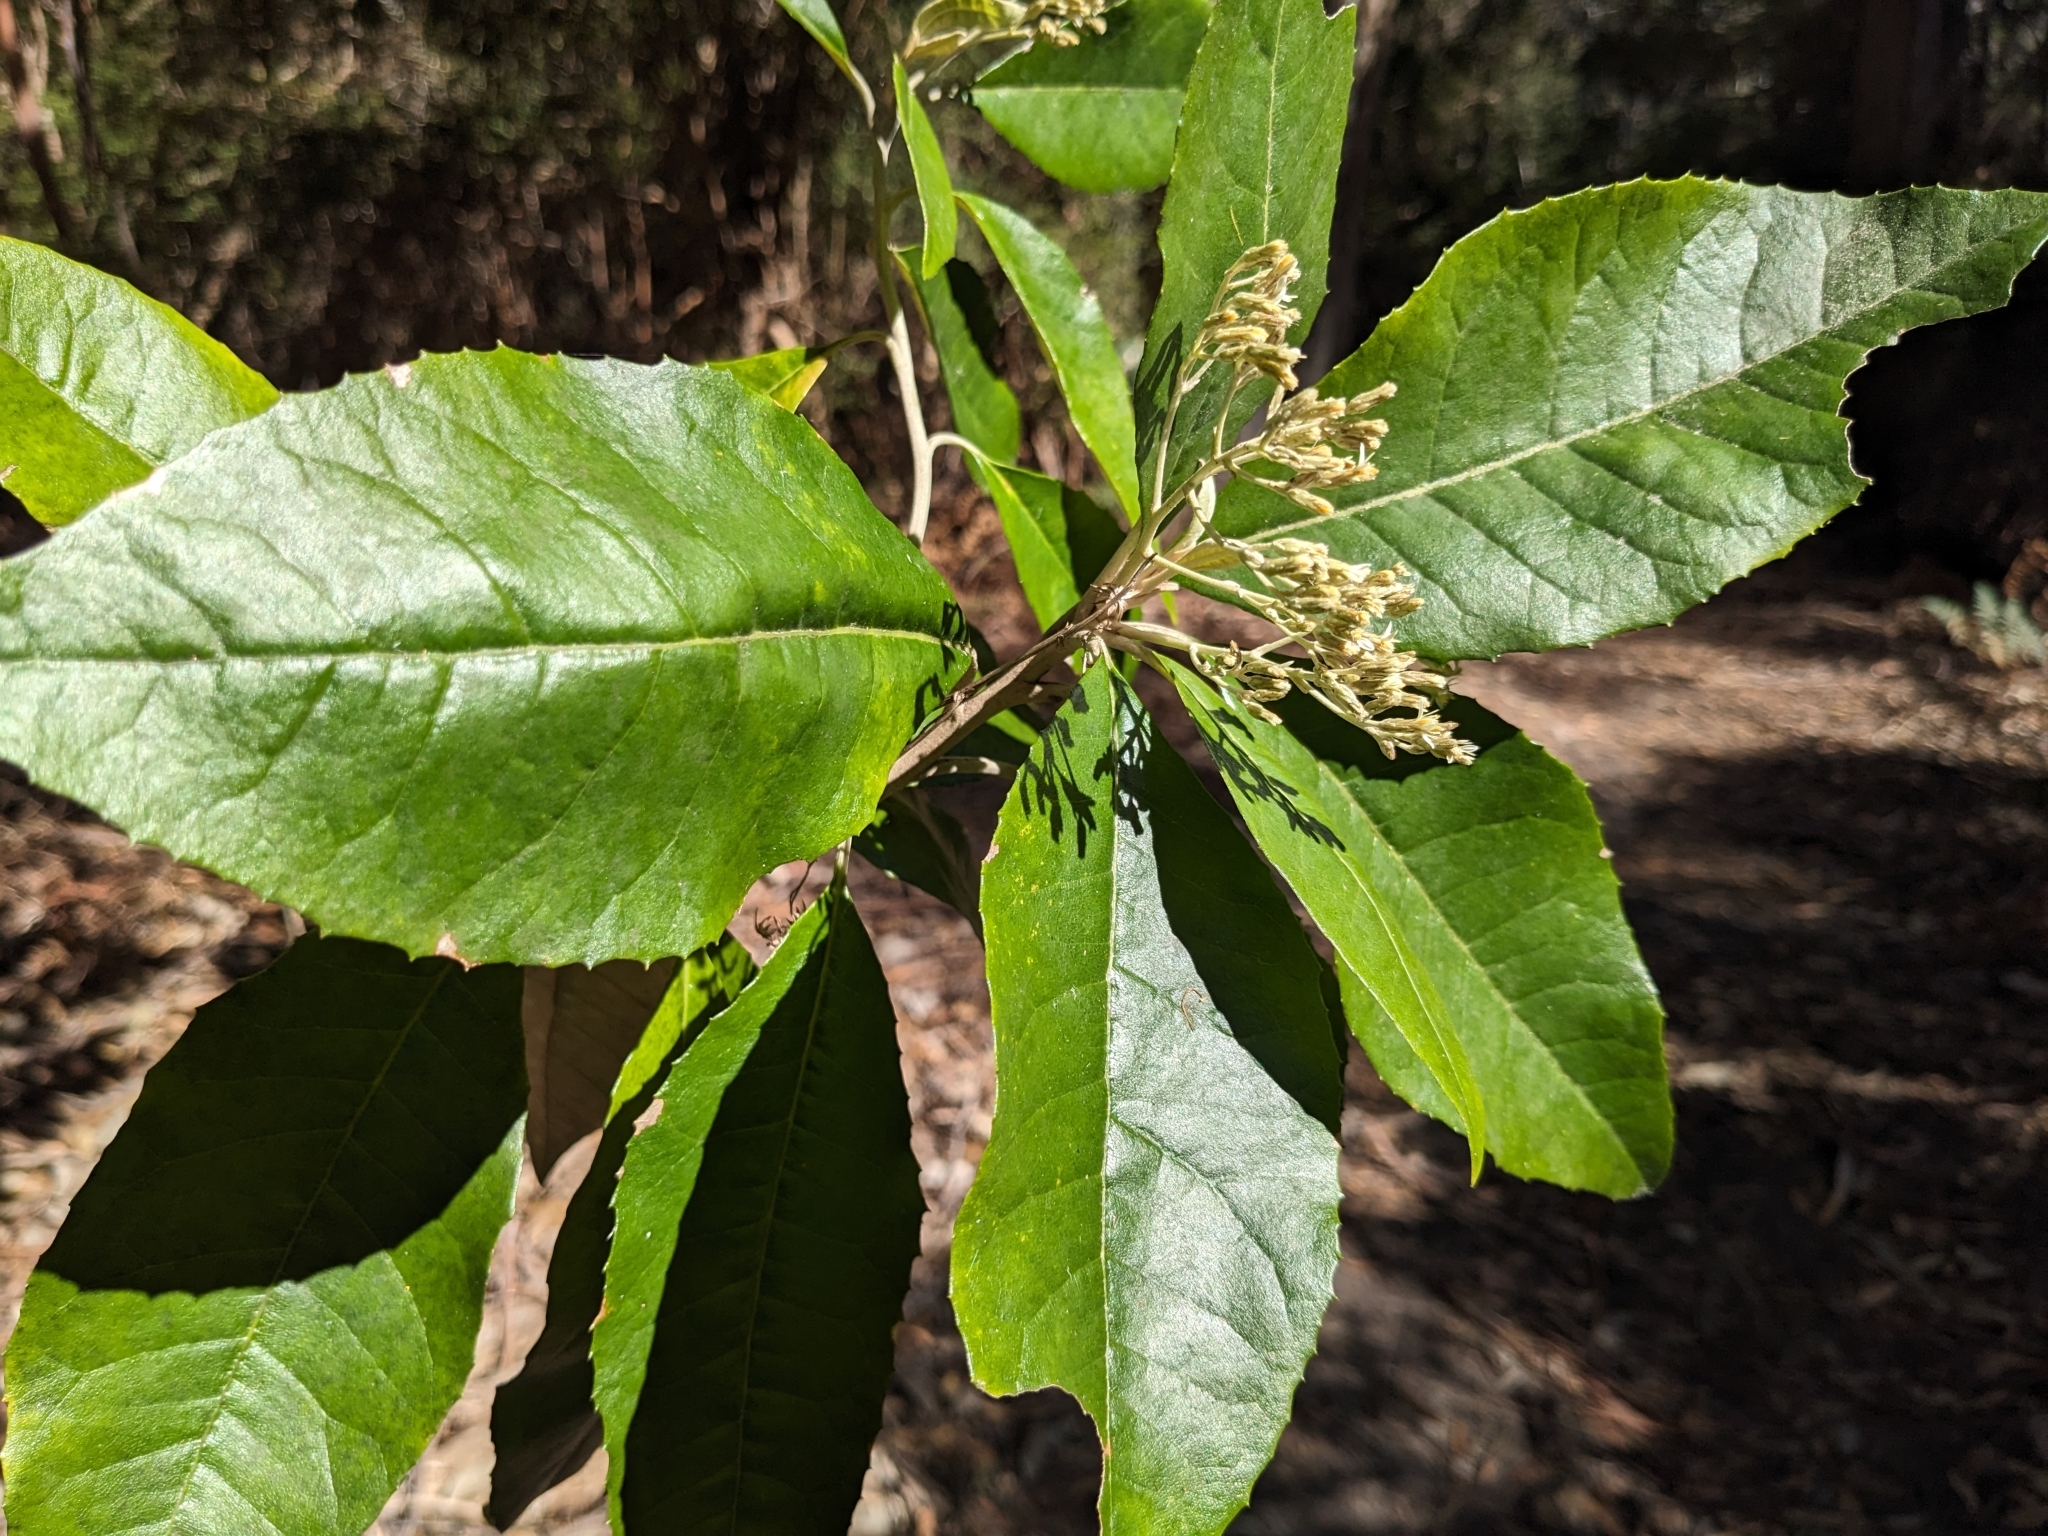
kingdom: Plantae
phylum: Tracheophyta
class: Magnoliopsida
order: Asterales
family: Asteraceae
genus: Olearia
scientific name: Olearia argophylla
